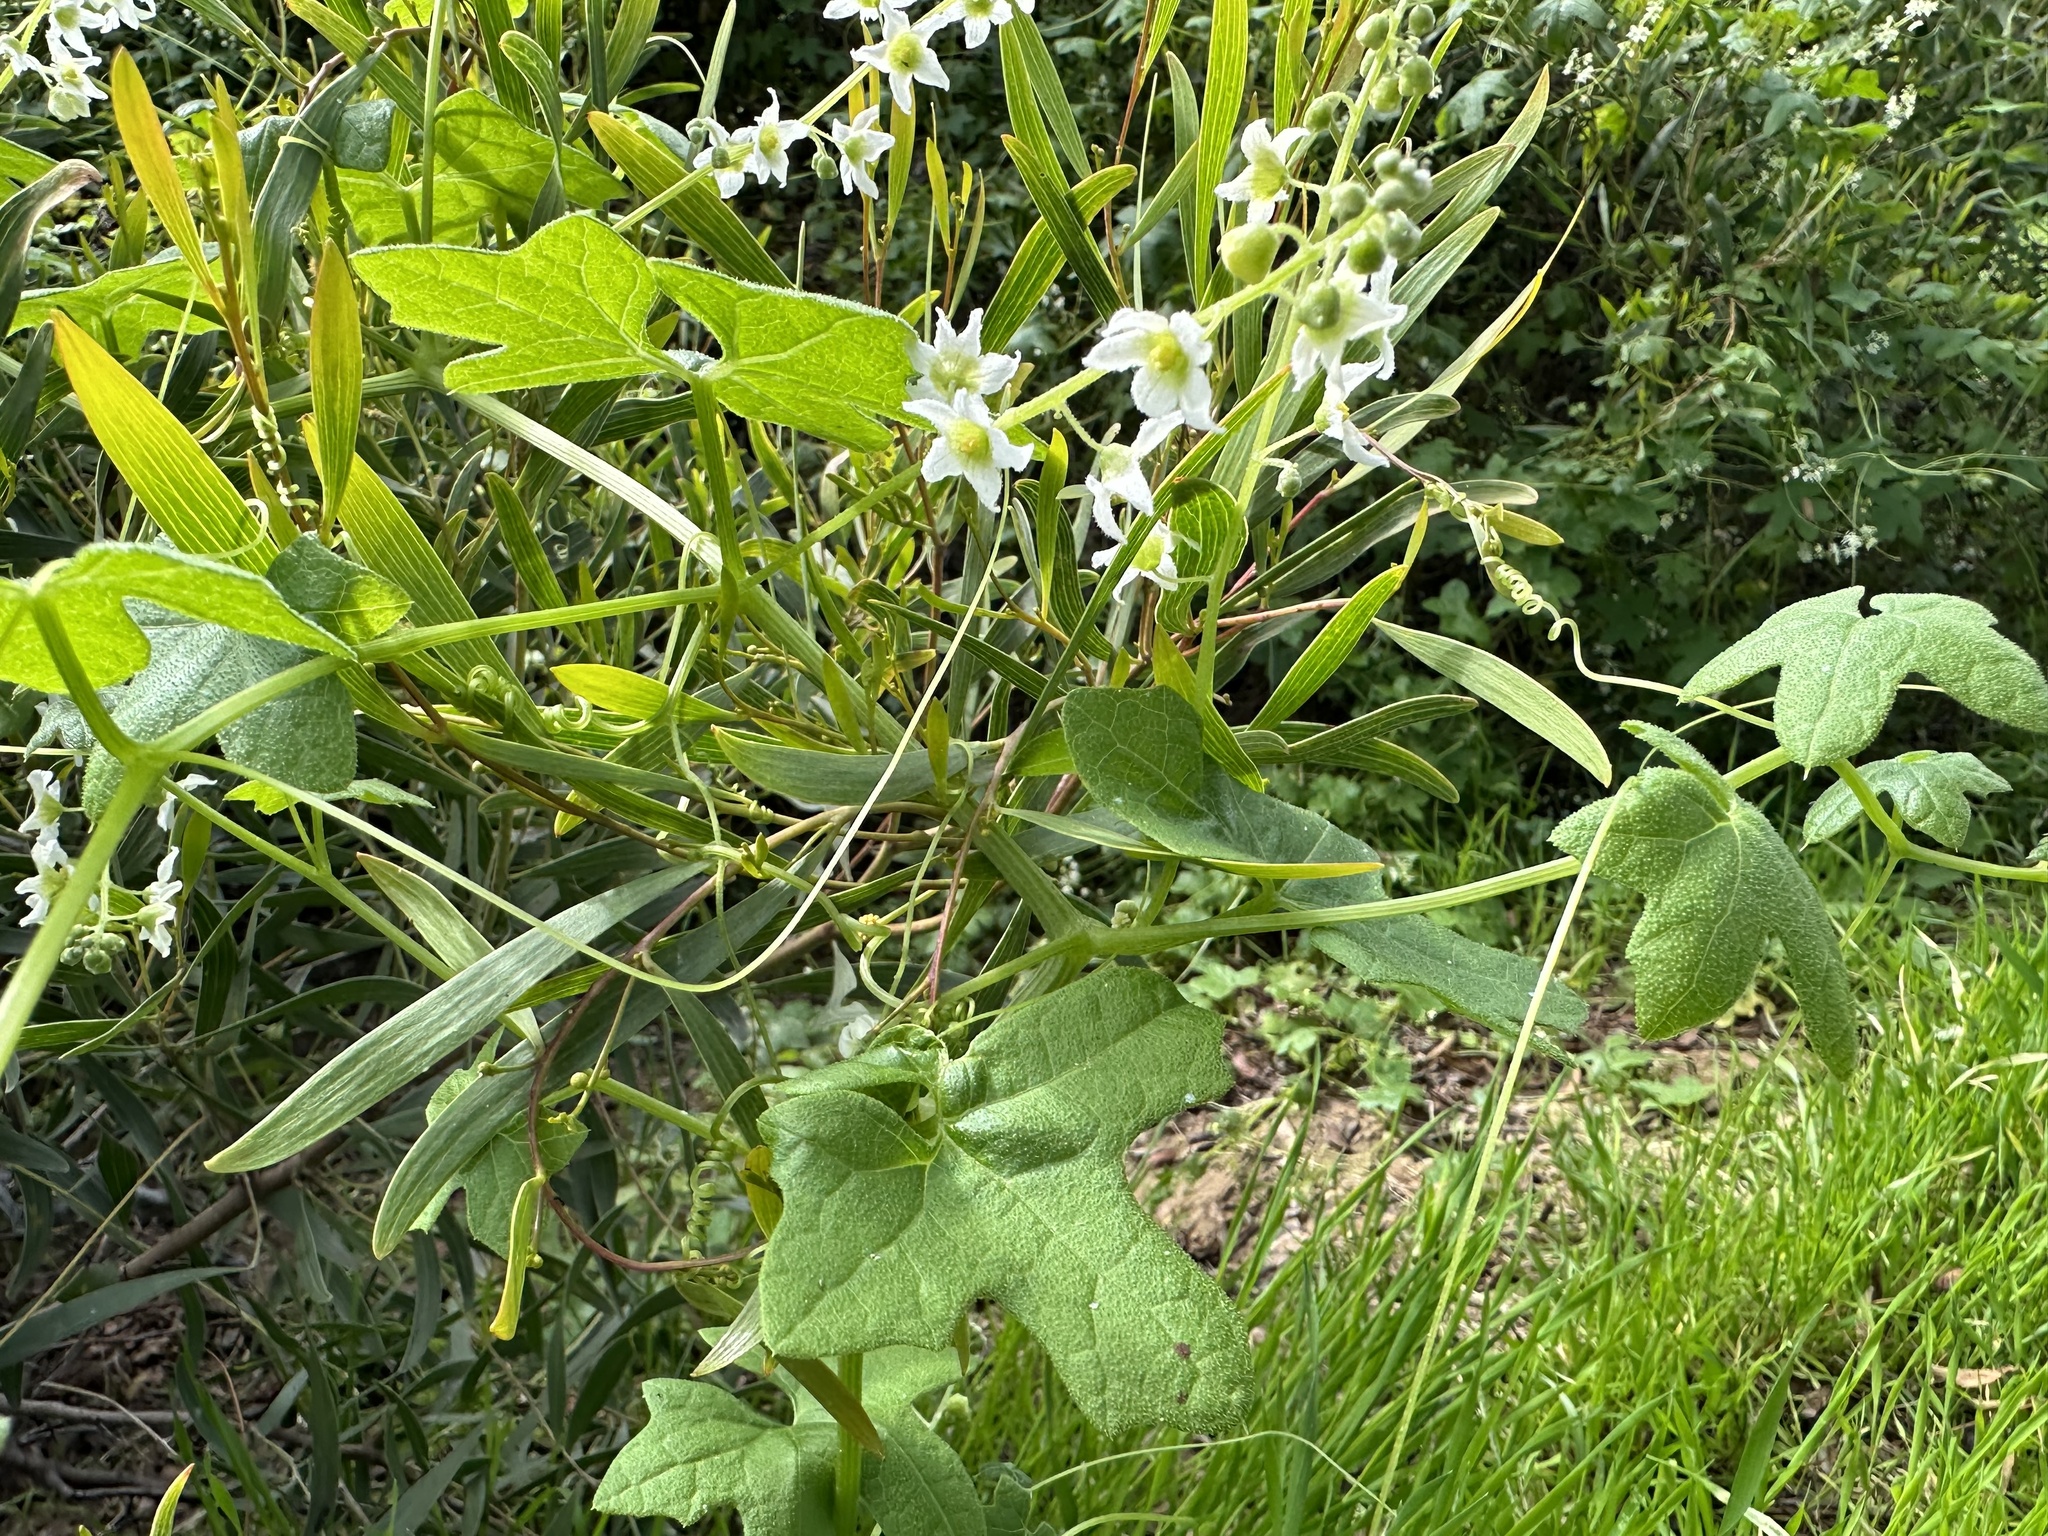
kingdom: Plantae
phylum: Tracheophyta
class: Magnoliopsida
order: Cucurbitales
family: Cucurbitaceae
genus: Marah
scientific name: Marah macrocarpa
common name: Cucamonga manroot
